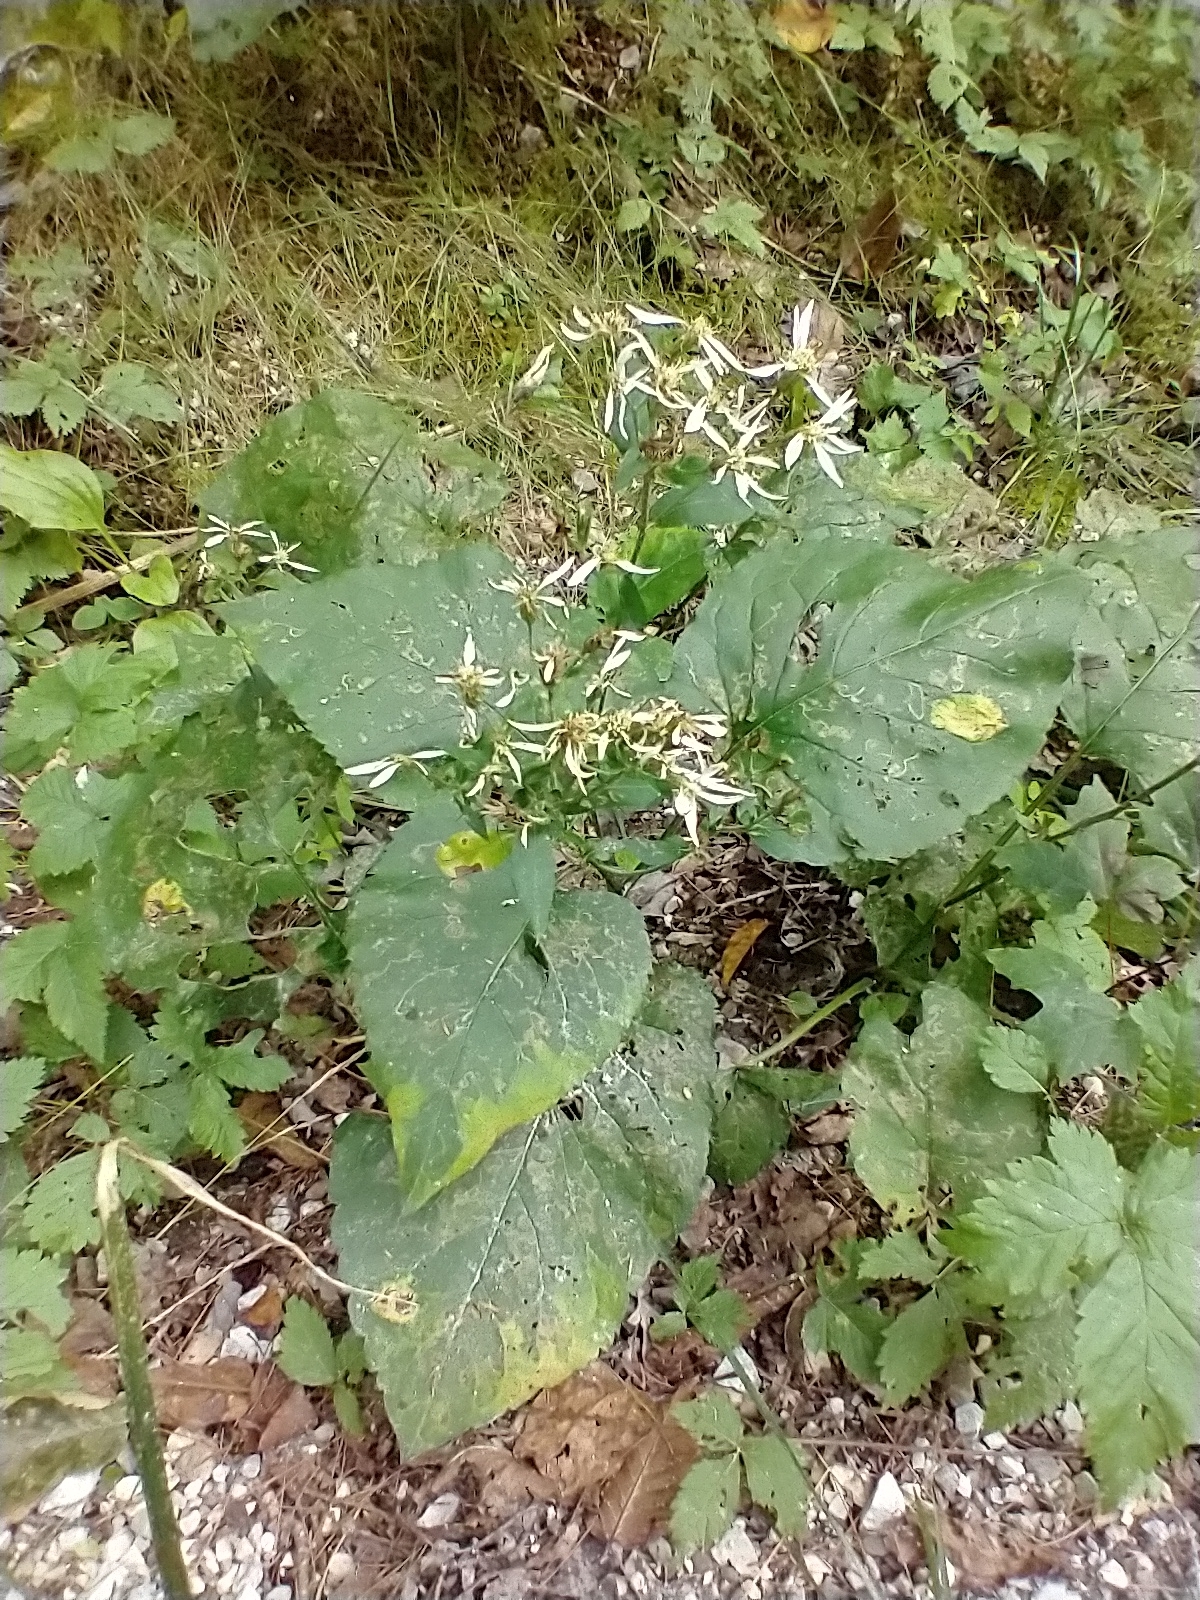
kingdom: Plantae
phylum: Tracheophyta
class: Magnoliopsida
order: Asterales
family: Asteraceae
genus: Eurybia
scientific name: Eurybia macrophylla
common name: Big-leaved aster
